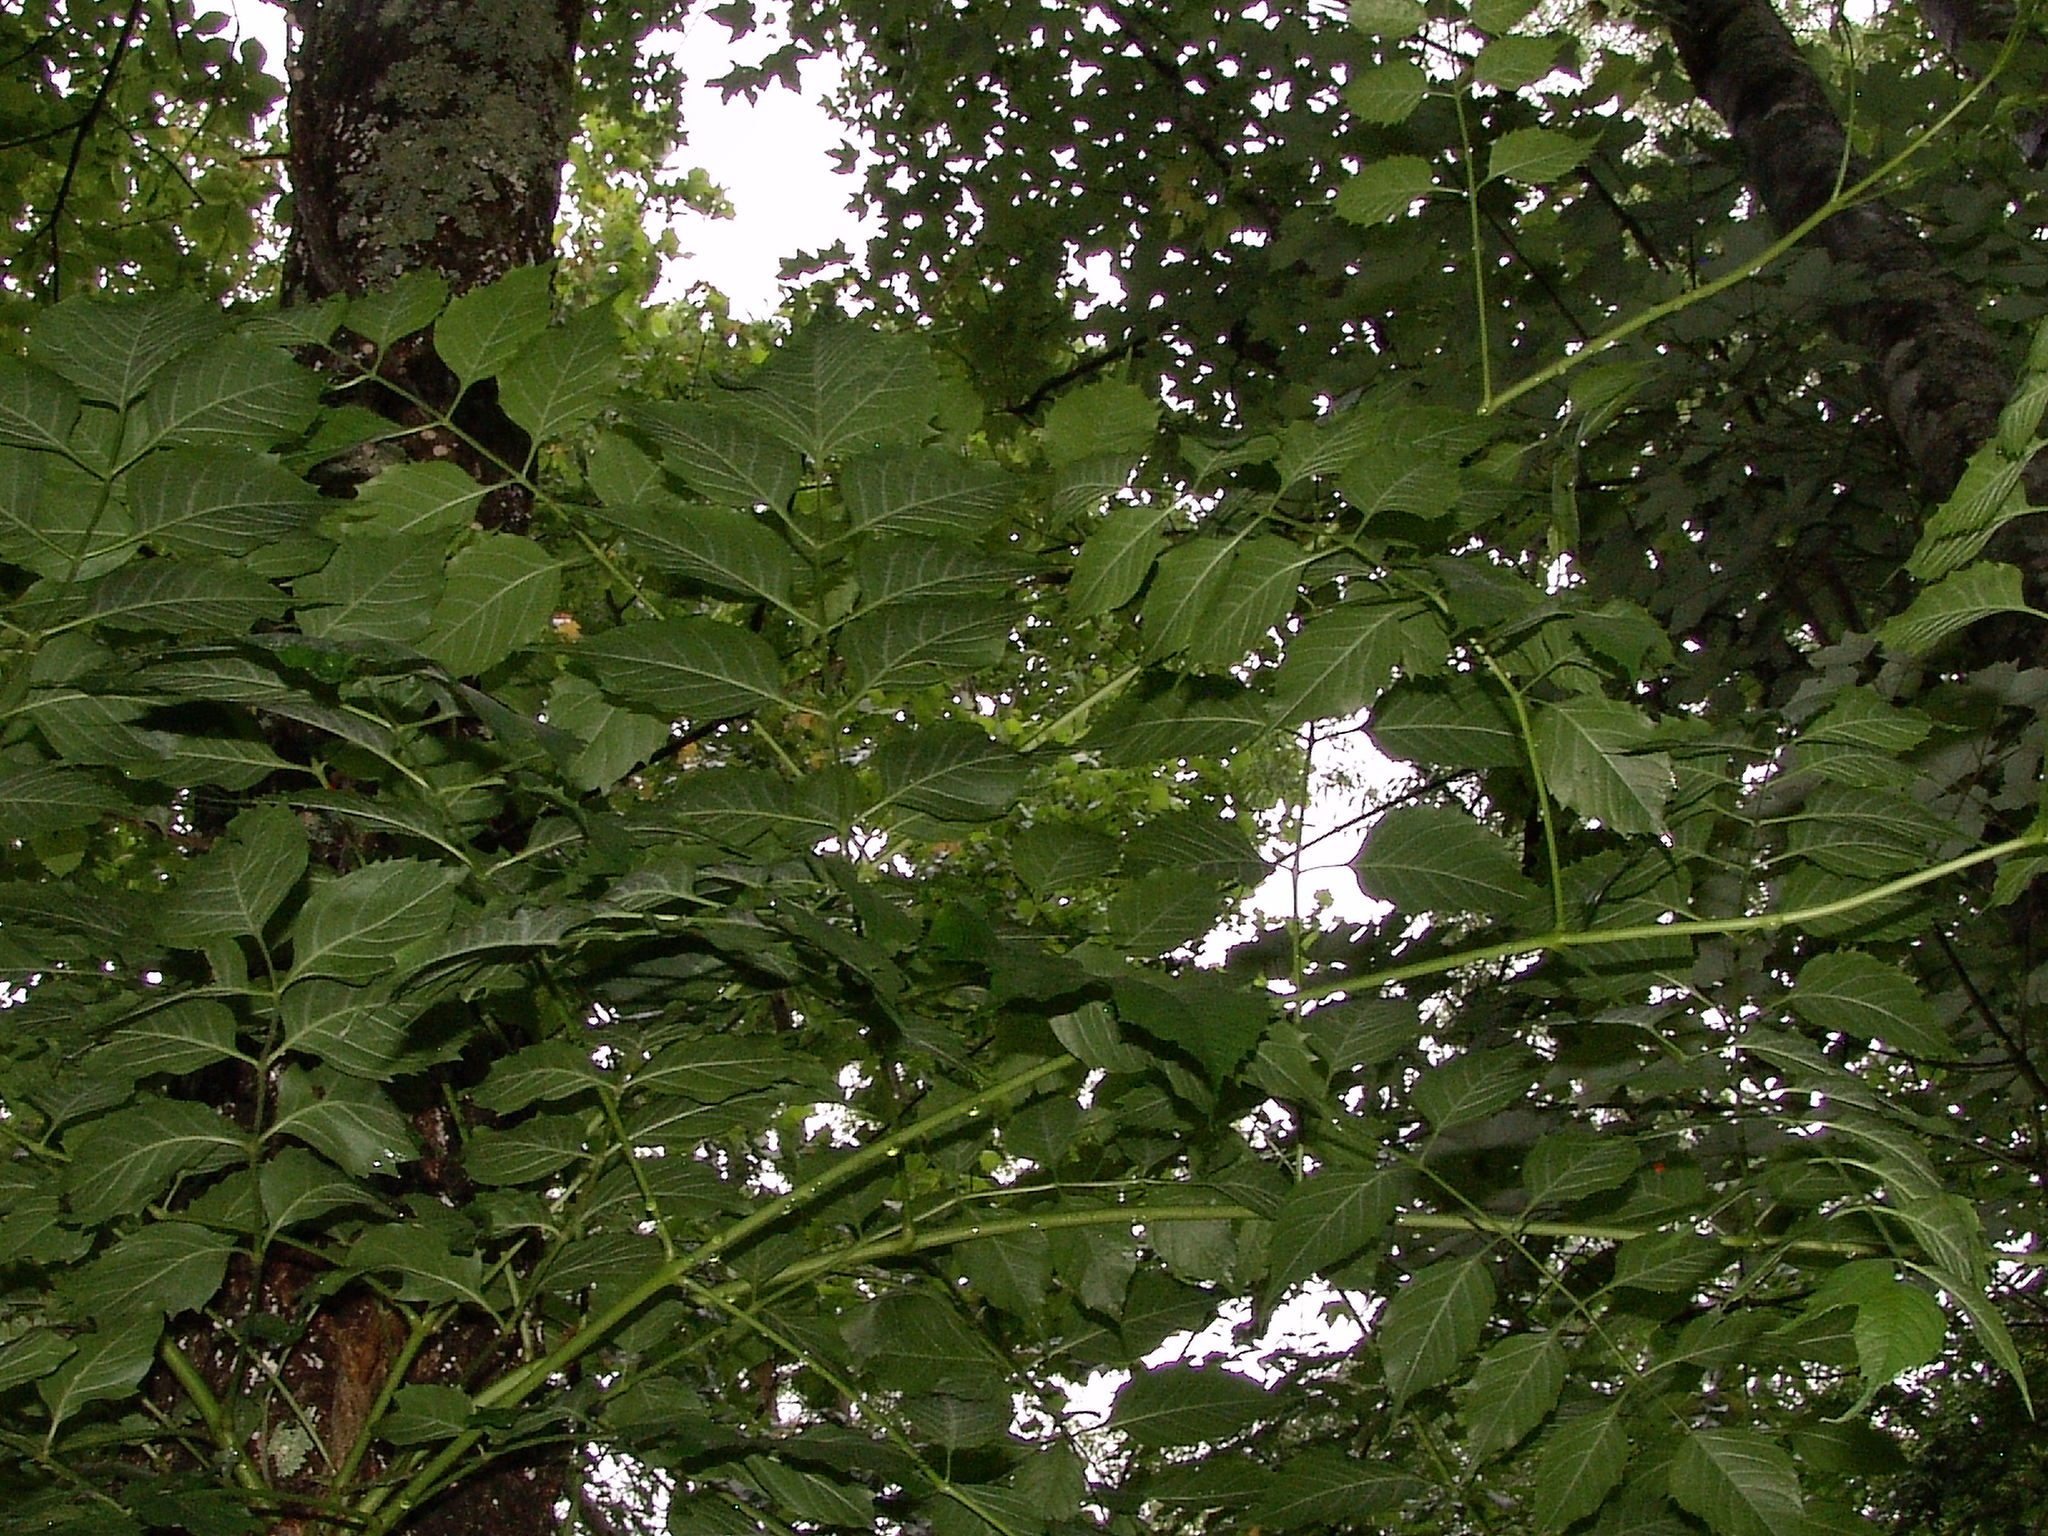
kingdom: Plantae
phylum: Tracheophyta
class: Magnoliopsida
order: Lamiales
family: Bignoniaceae
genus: Campsis
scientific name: Campsis radicans
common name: Trumpet-creeper
